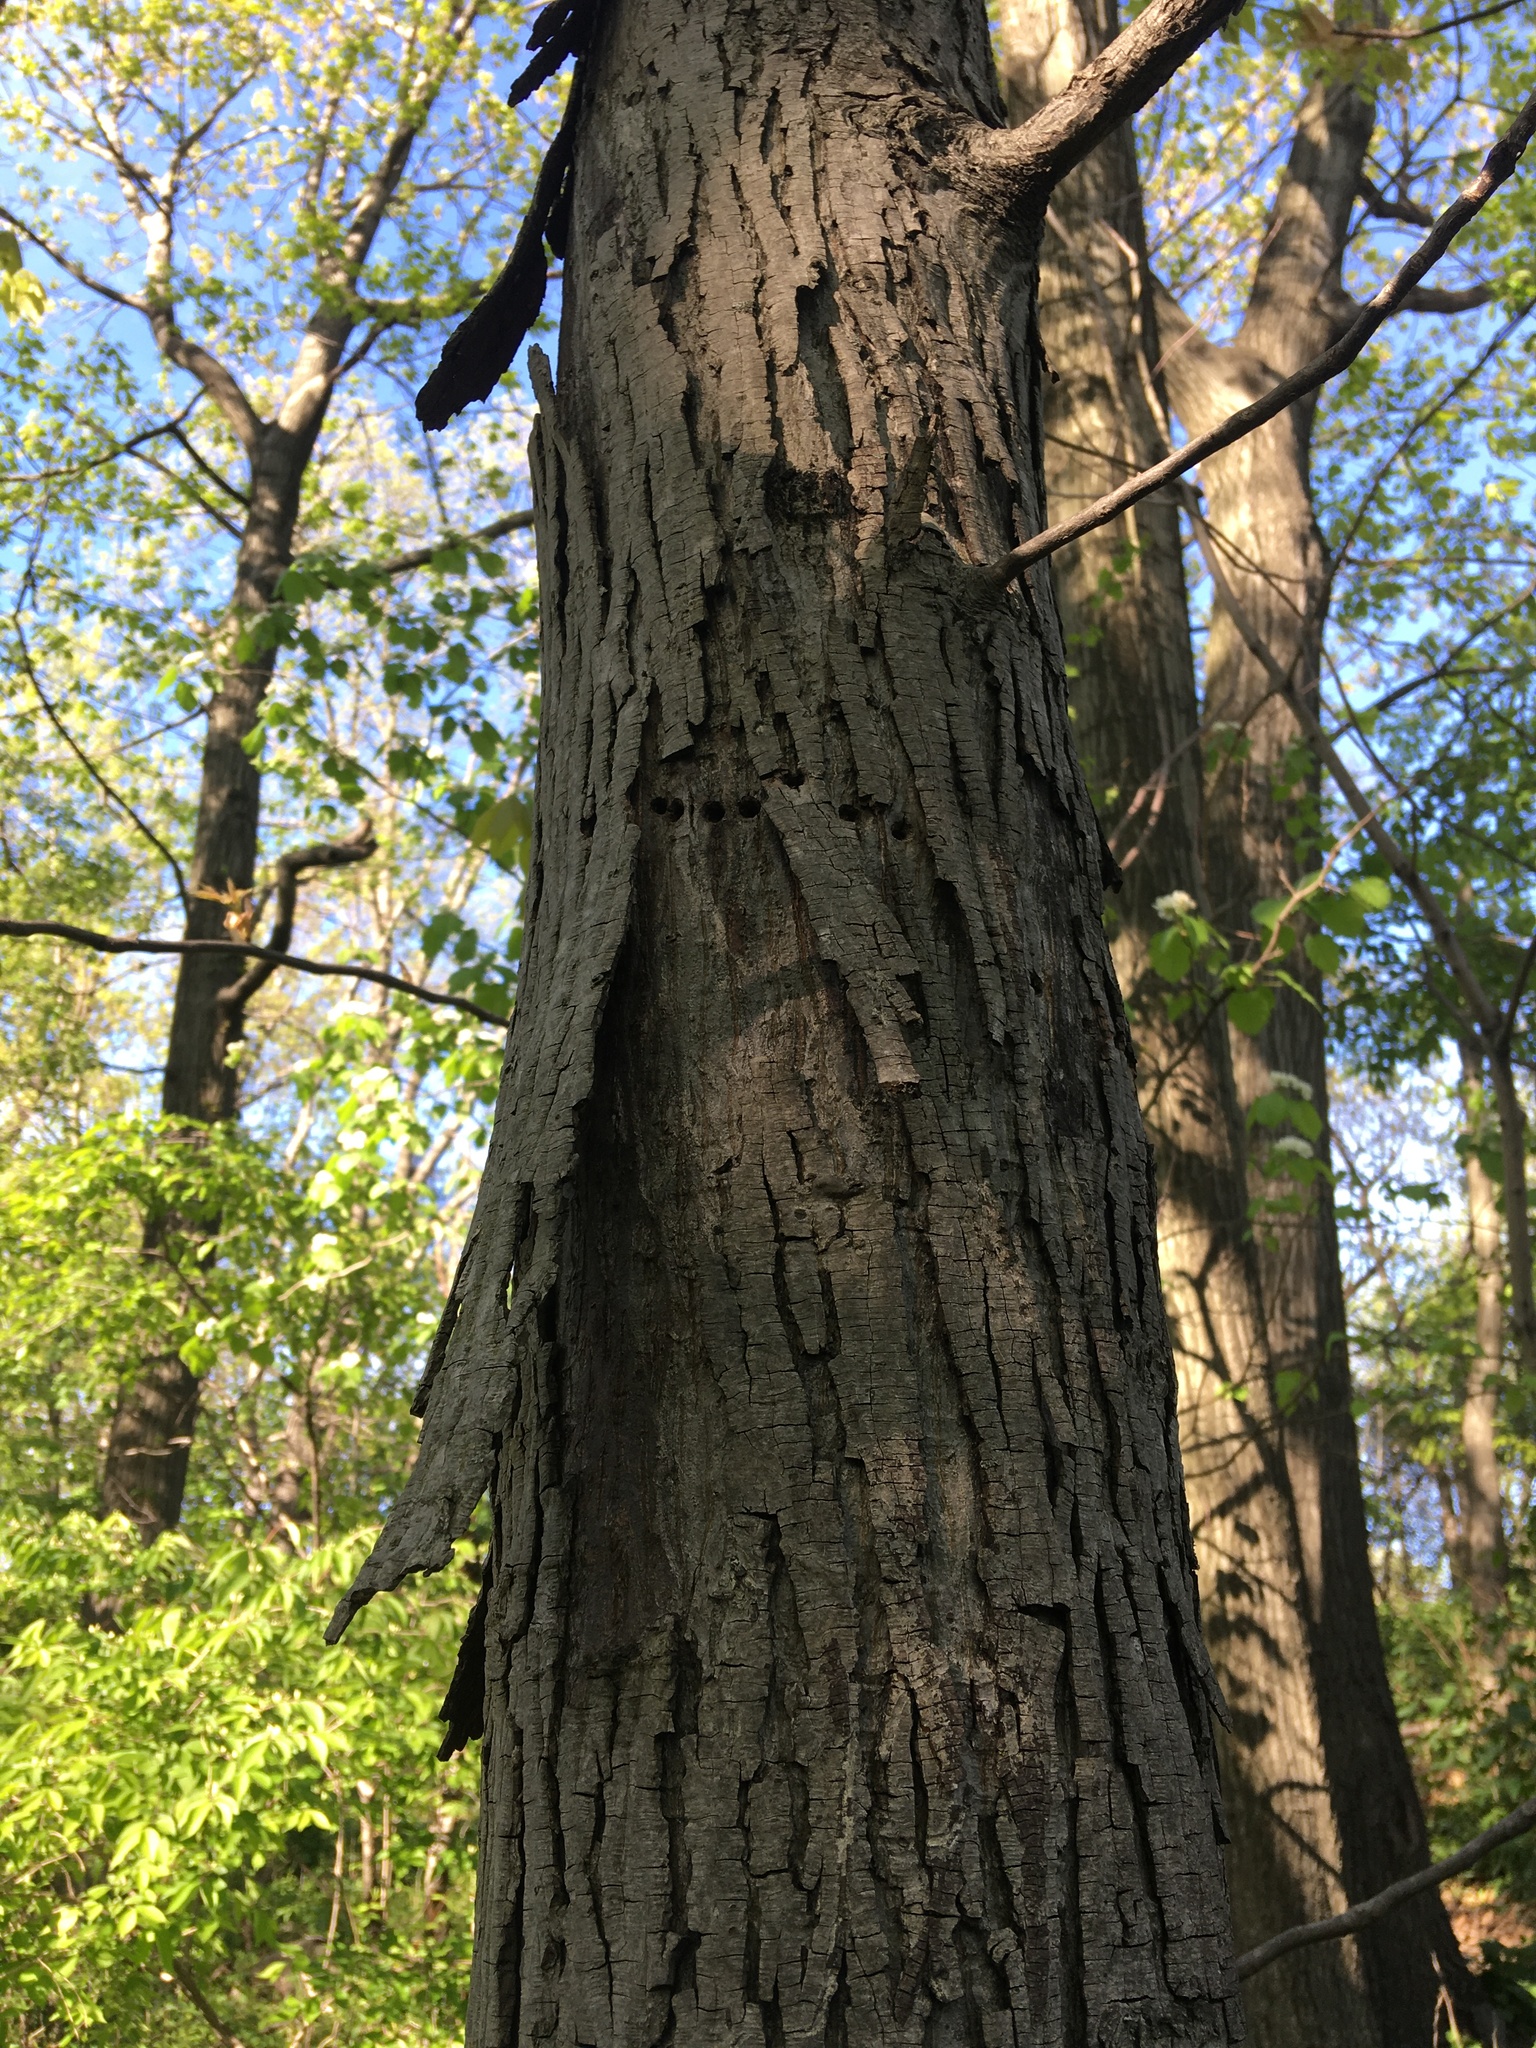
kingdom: Plantae
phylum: Tracheophyta
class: Magnoliopsida
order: Fagales
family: Juglandaceae
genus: Carya
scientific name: Carya ovata
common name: Shagbark hickory
